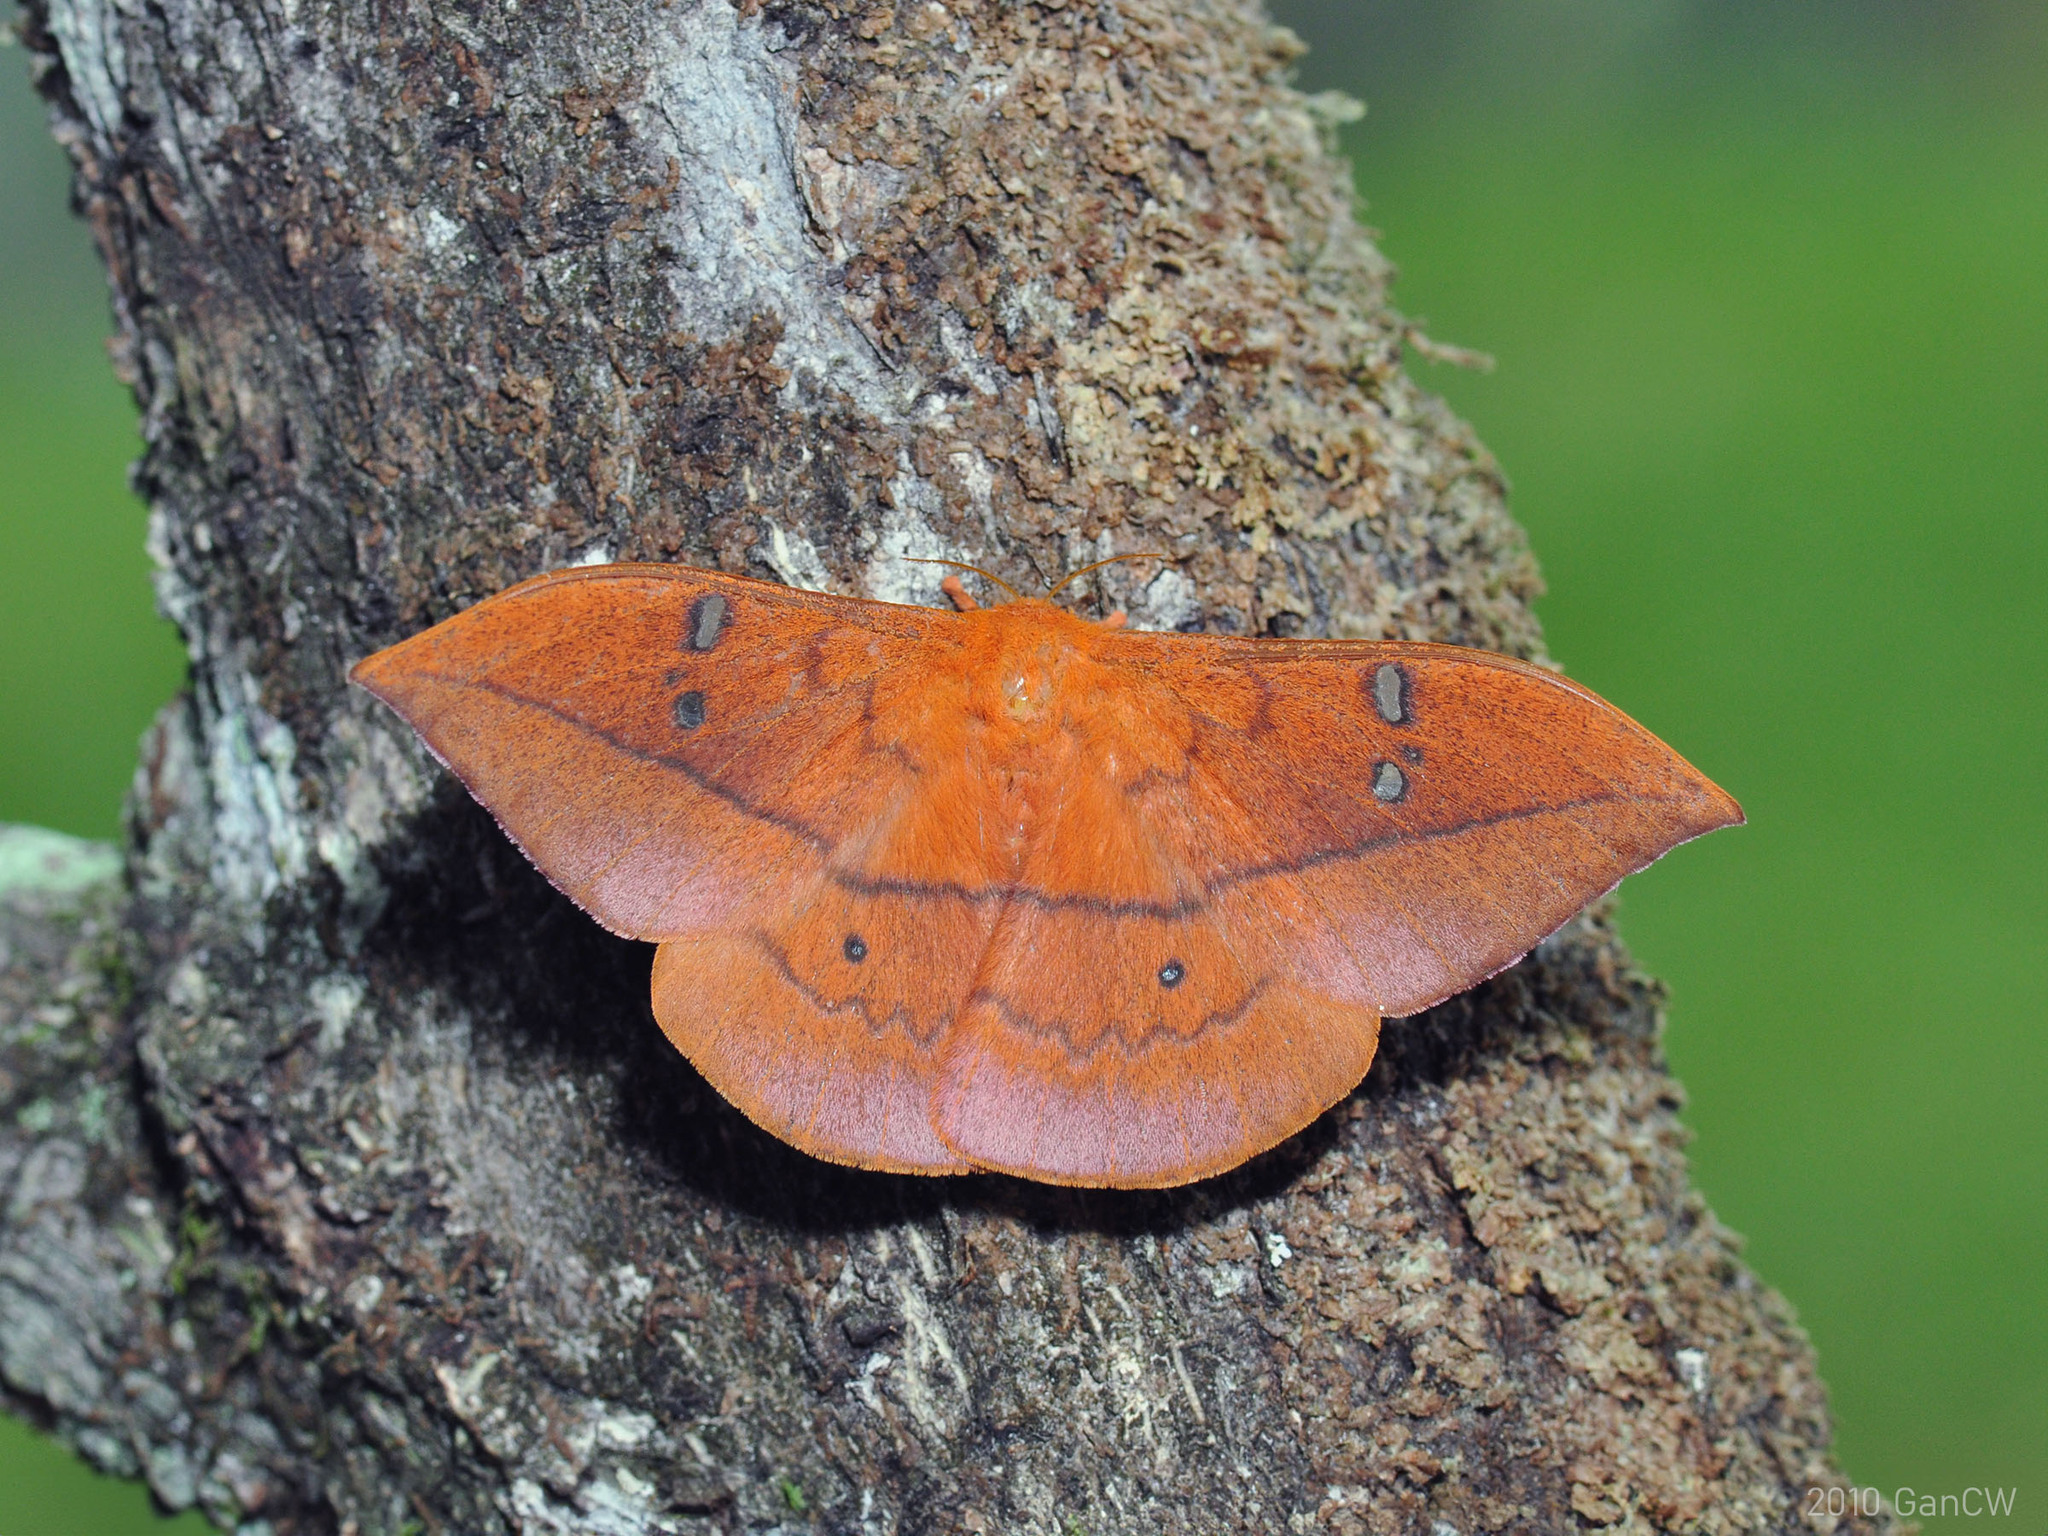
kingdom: Animalia
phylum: Arthropoda
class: Insecta
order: Lepidoptera
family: Saturniidae
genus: Cricula
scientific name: Cricula trifenestrata
